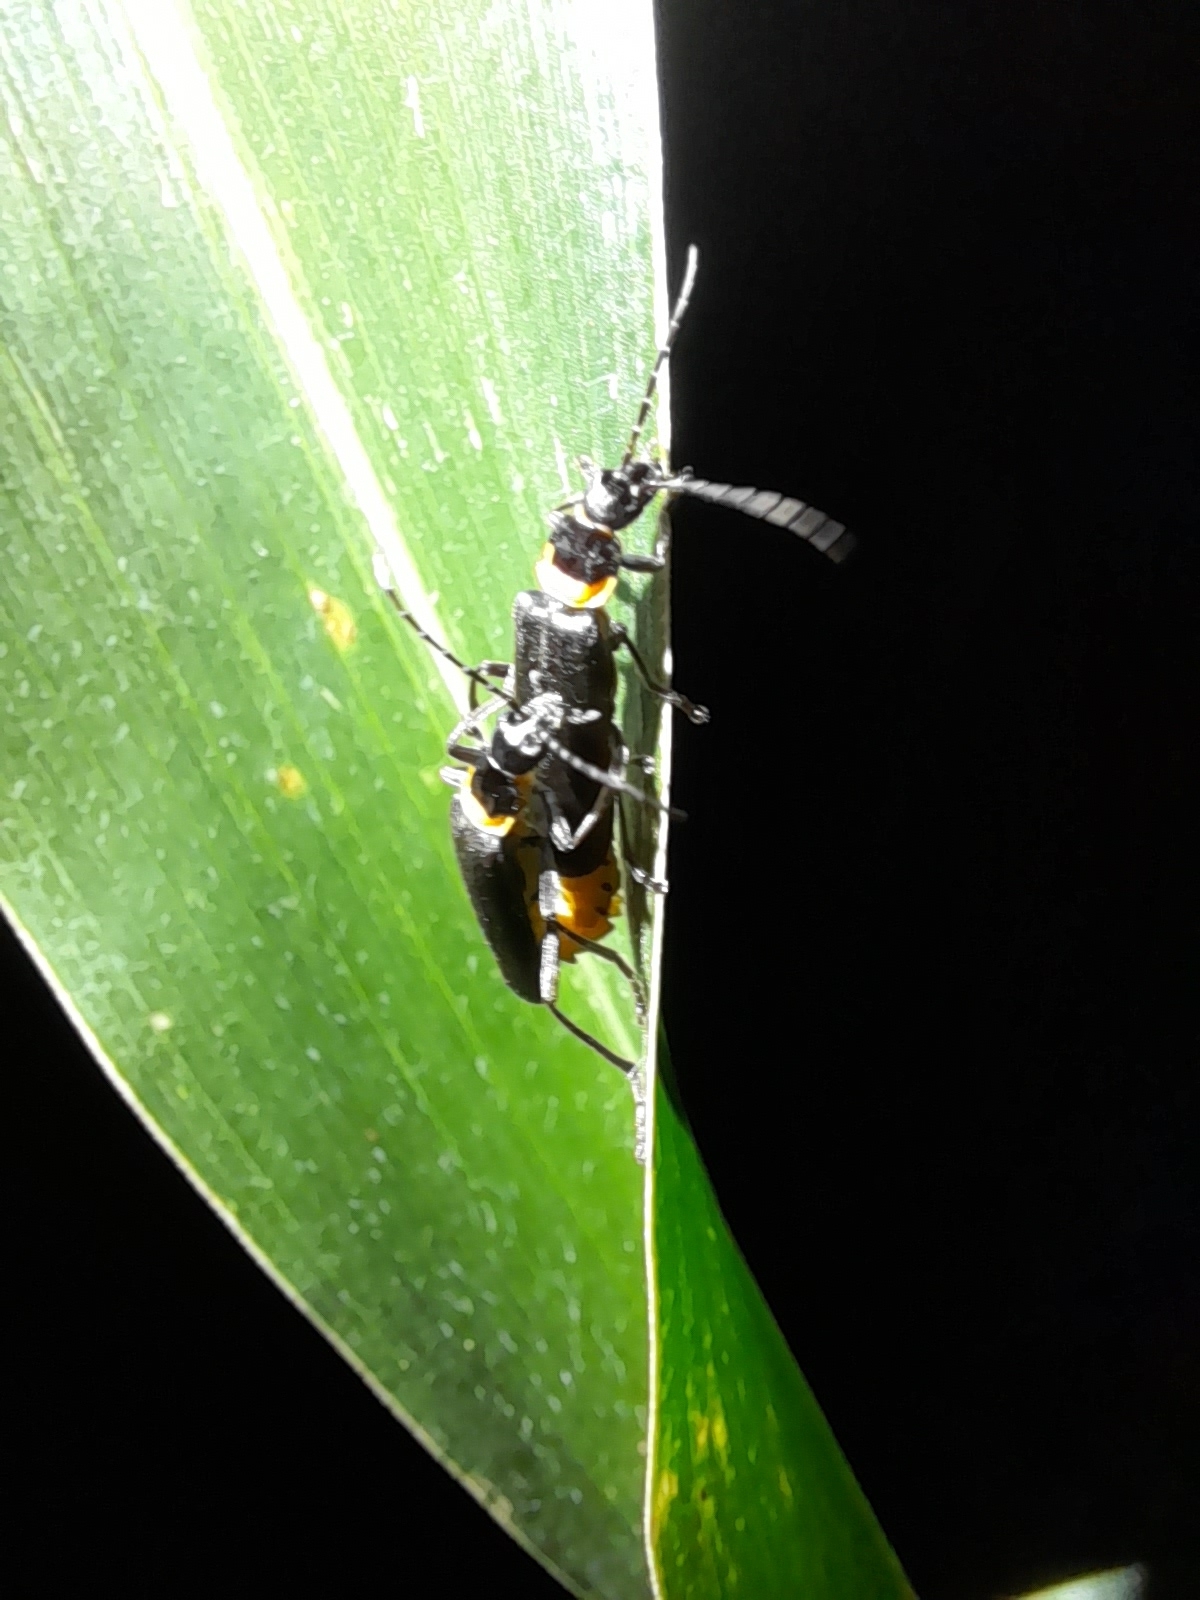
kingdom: Animalia
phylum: Arthropoda
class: Insecta
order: Coleoptera
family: Cantharidae
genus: Chauliognathus
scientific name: Chauliognathus
